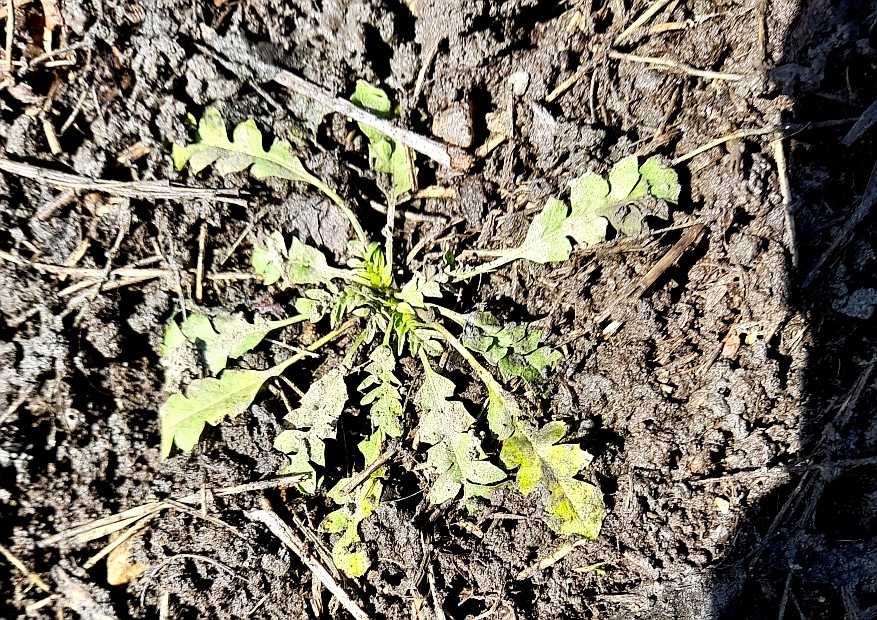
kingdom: Plantae
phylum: Tracheophyta
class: Magnoliopsida
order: Brassicales
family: Brassicaceae
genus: Capsella
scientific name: Capsella bursa-pastoris
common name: Shepherd's purse
